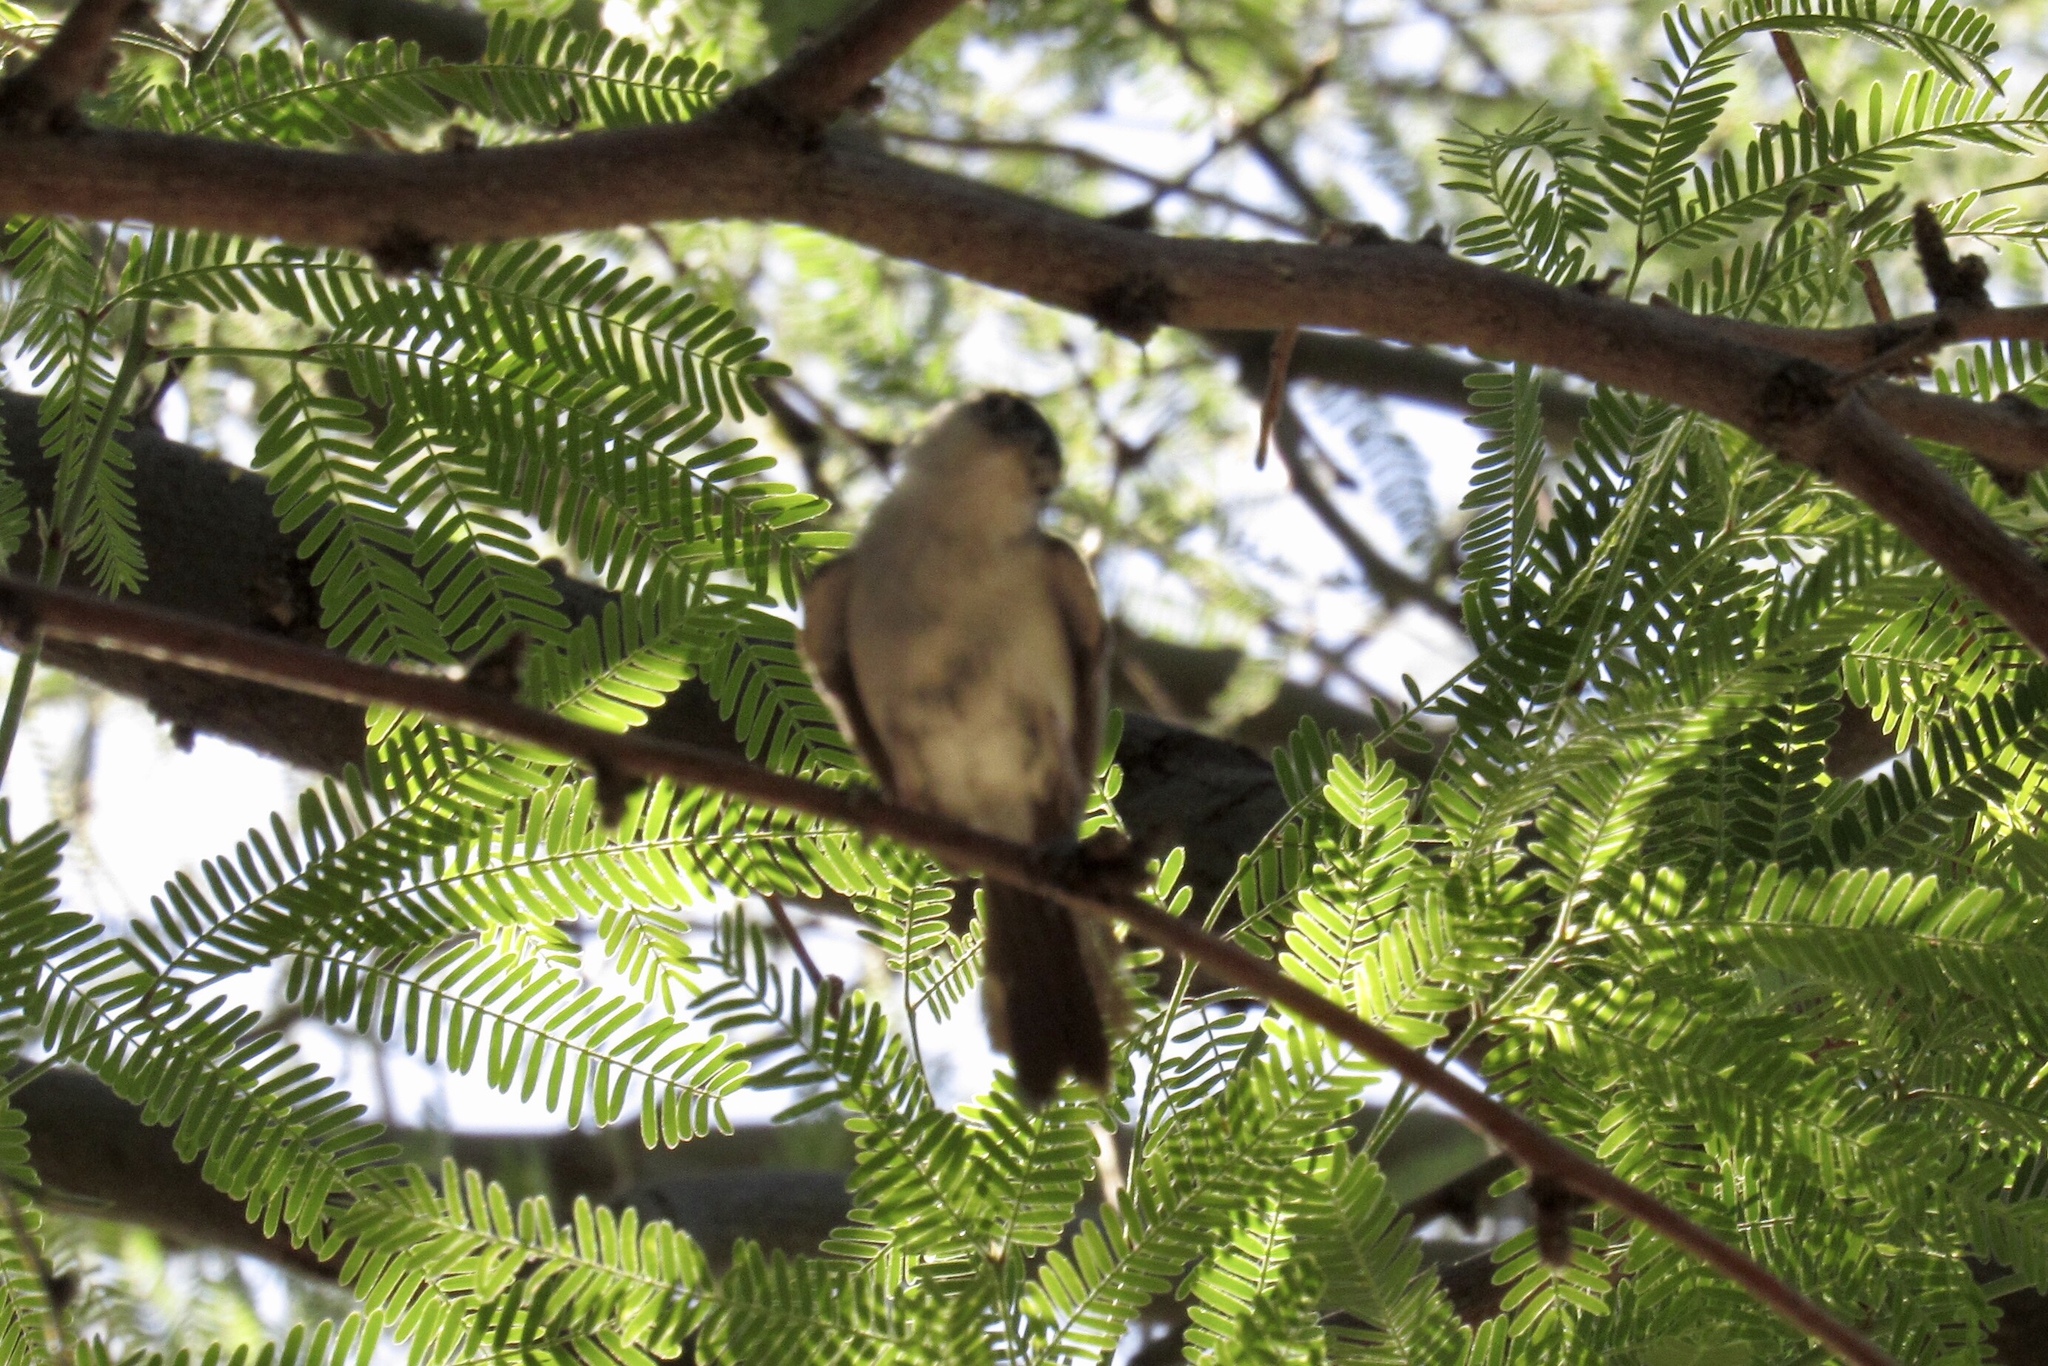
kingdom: Animalia
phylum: Chordata
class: Aves
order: Passeriformes
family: Polioptilidae
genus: Polioptila
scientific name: Polioptila melanura
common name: Black-tailed gnatcatcher
